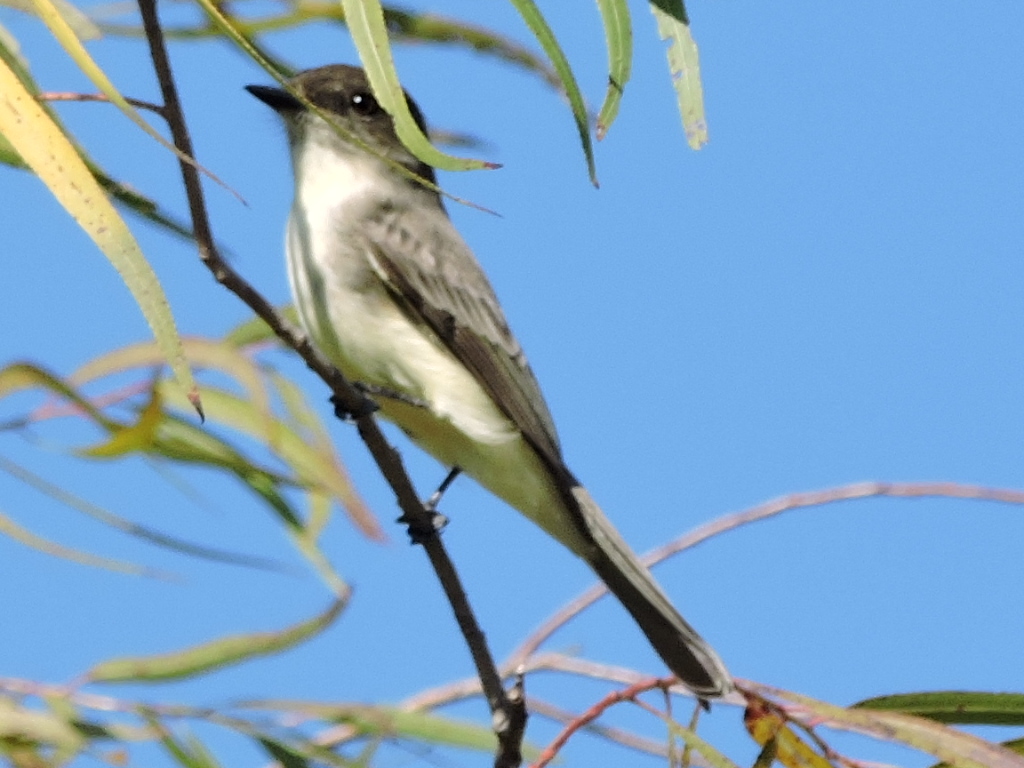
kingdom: Animalia
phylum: Chordata
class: Aves
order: Passeriformes
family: Tyrannidae
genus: Sayornis
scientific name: Sayornis phoebe
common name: Eastern phoebe
